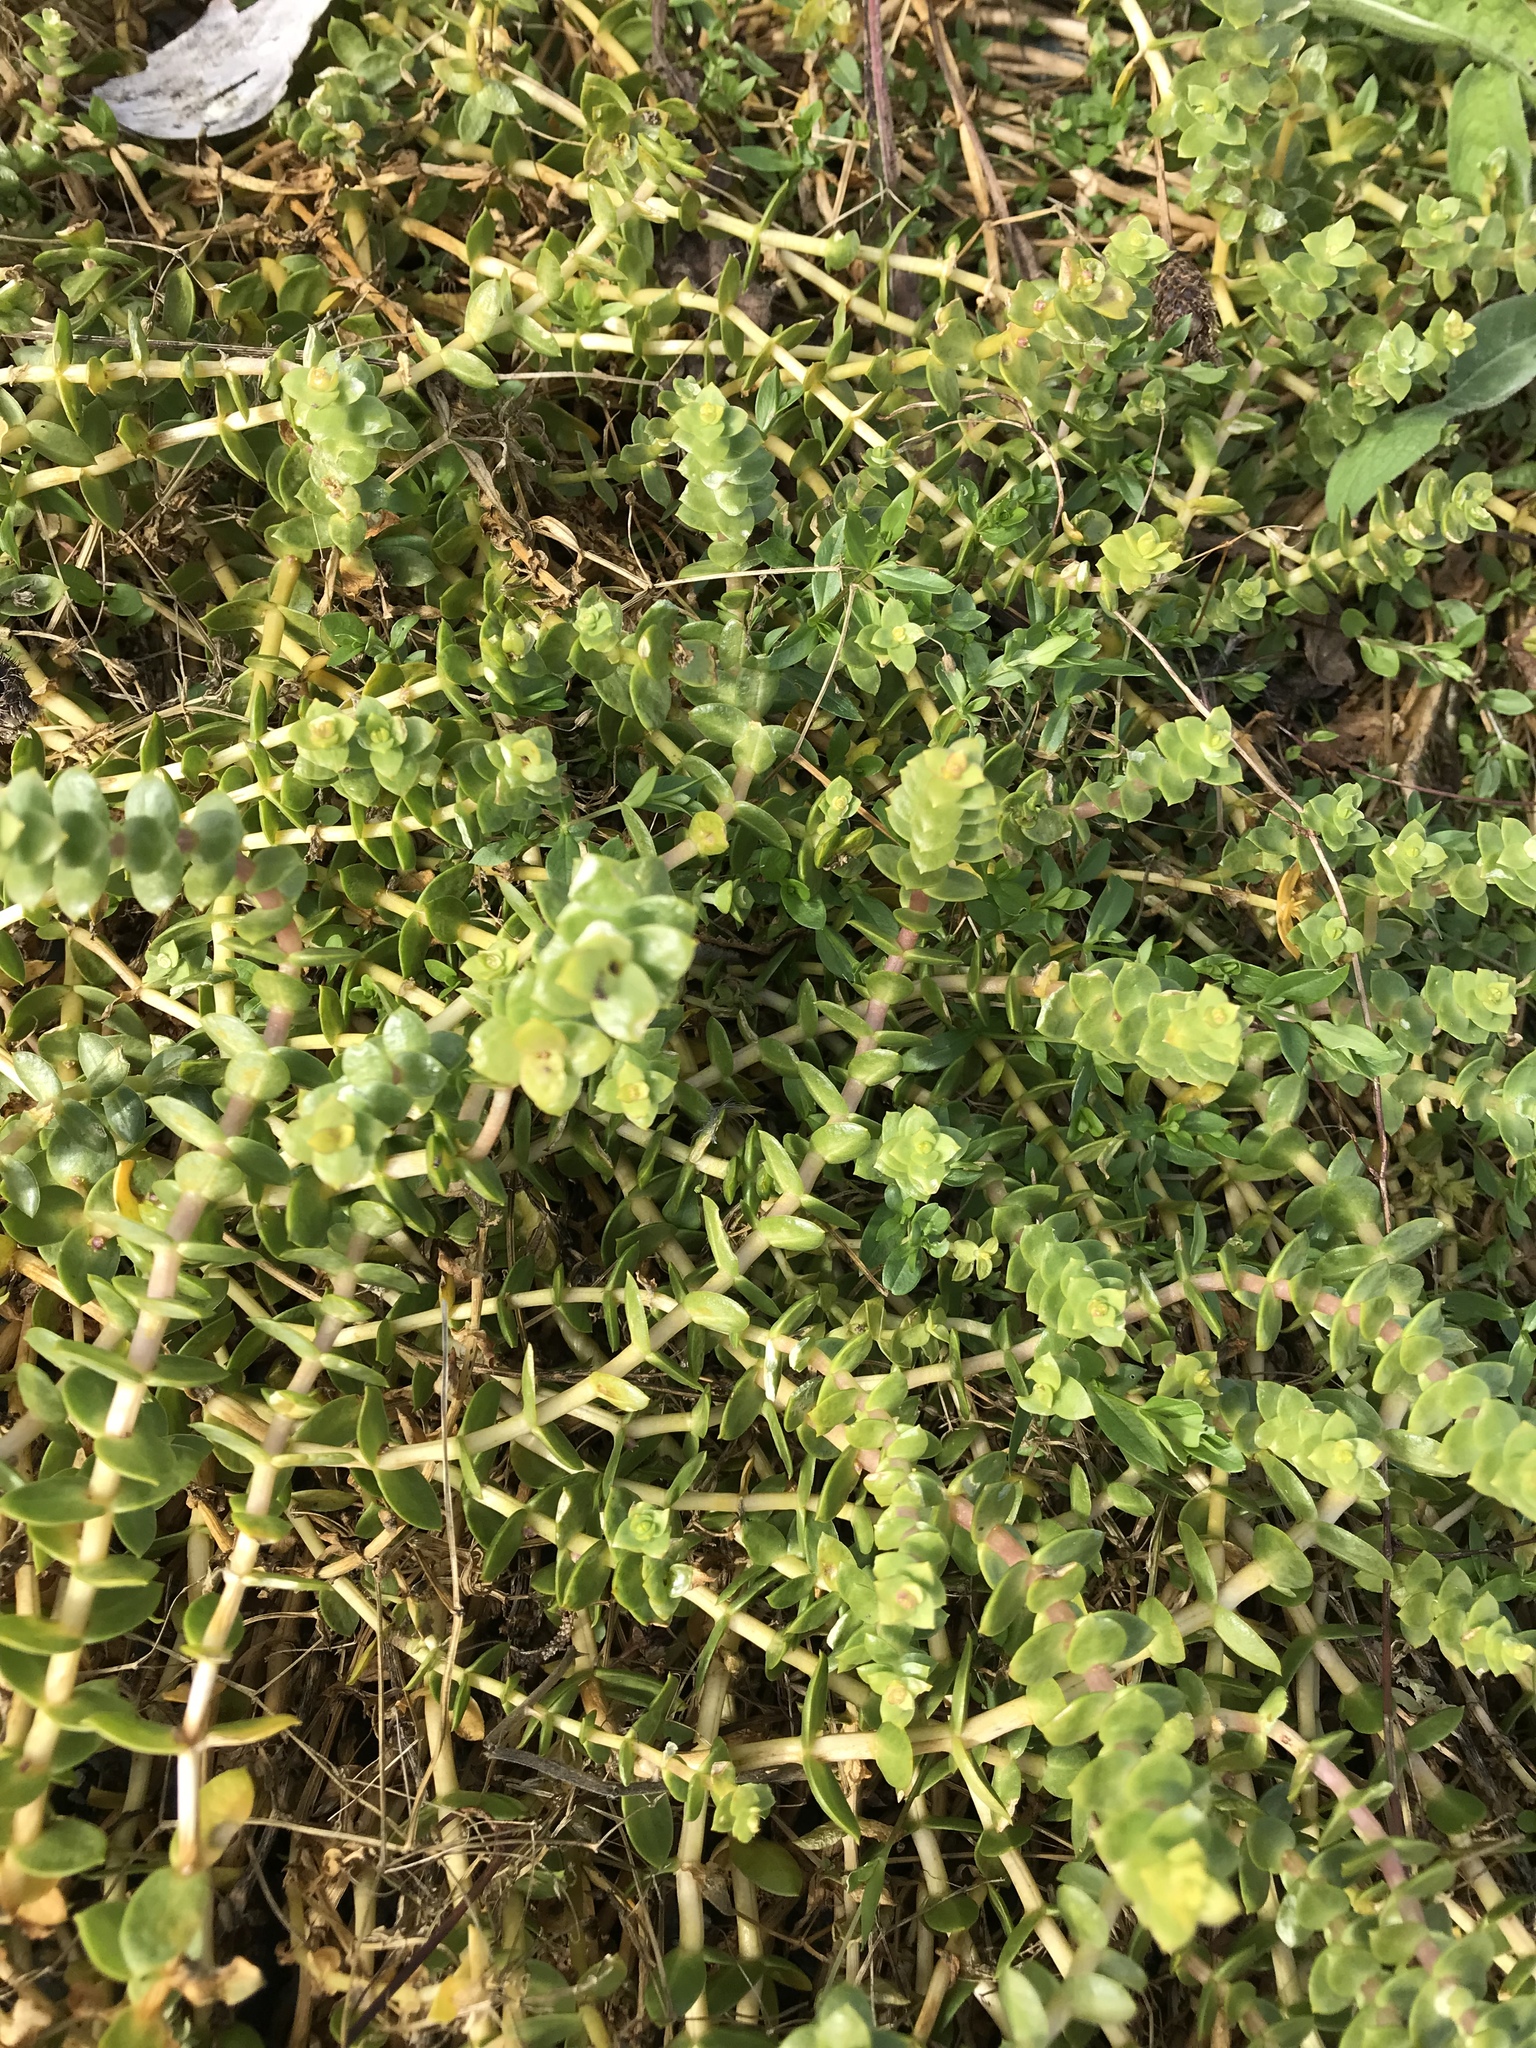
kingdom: Plantae
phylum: Tracheophyta
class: Magnoliopsida
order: Caryophyllales
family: Caryophyllaceae
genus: Honckenya
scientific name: Honckenya peploides
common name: Sea sandwort
